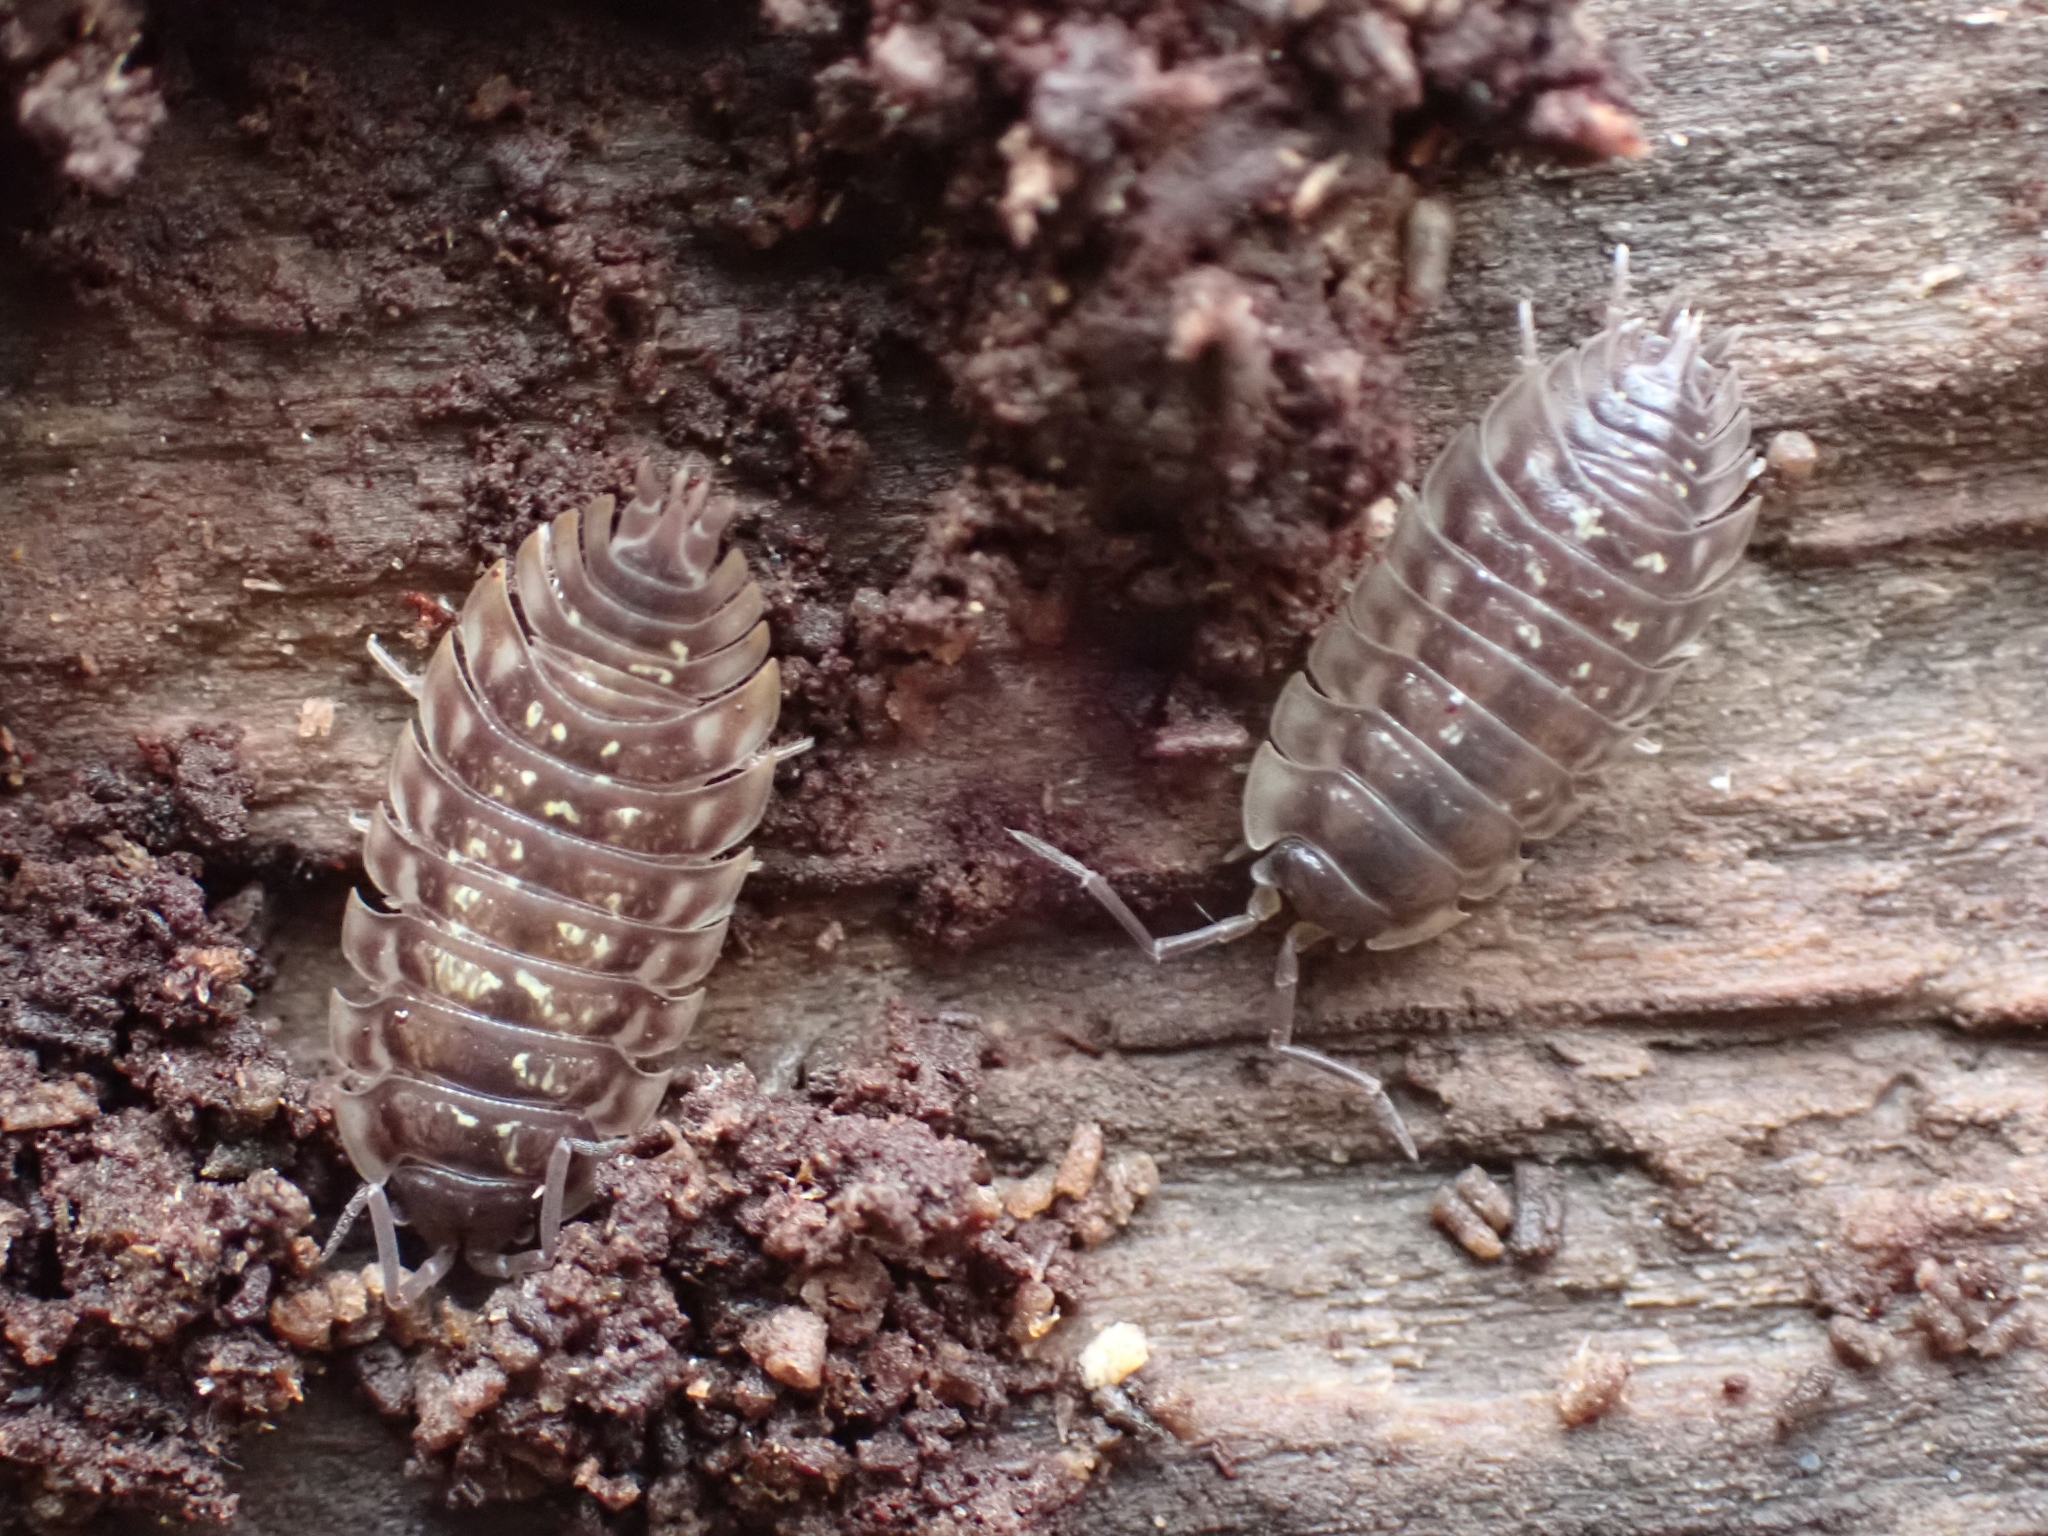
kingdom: Animalia
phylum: Arthropoda
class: Malacostraca
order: Isopoda
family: Oniscidae
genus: Oniscus
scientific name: Oniscus asellus
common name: Common shiny woodlouse
